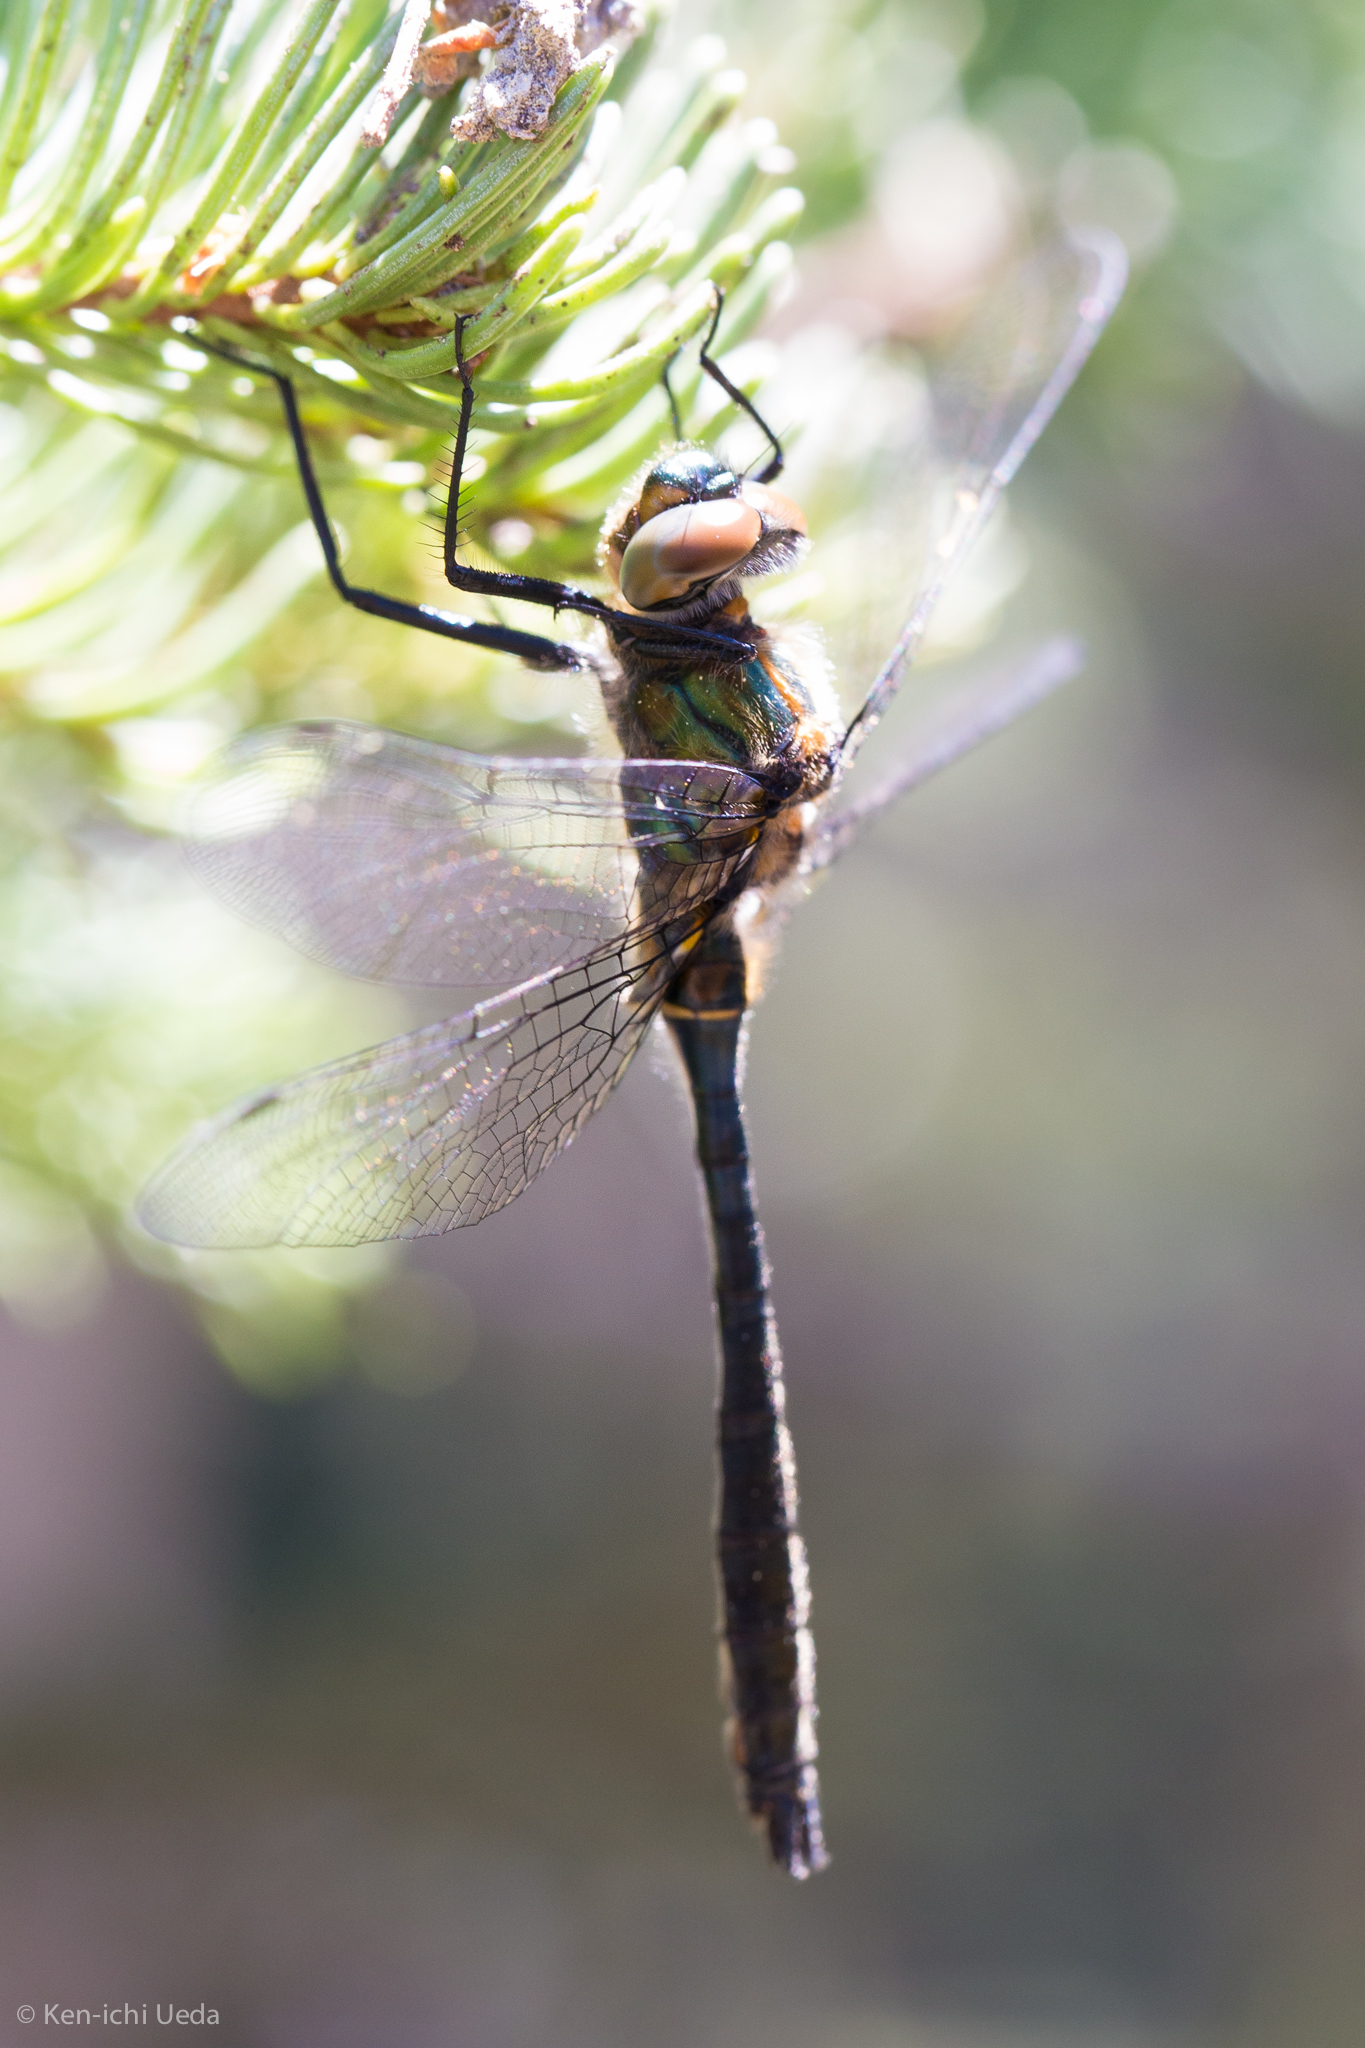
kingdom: Animalia
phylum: Arthropoda
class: Insecta
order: Odonata
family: Corduliidae
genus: Cordulia
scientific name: Cordulia shurtleffii
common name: American emerald
